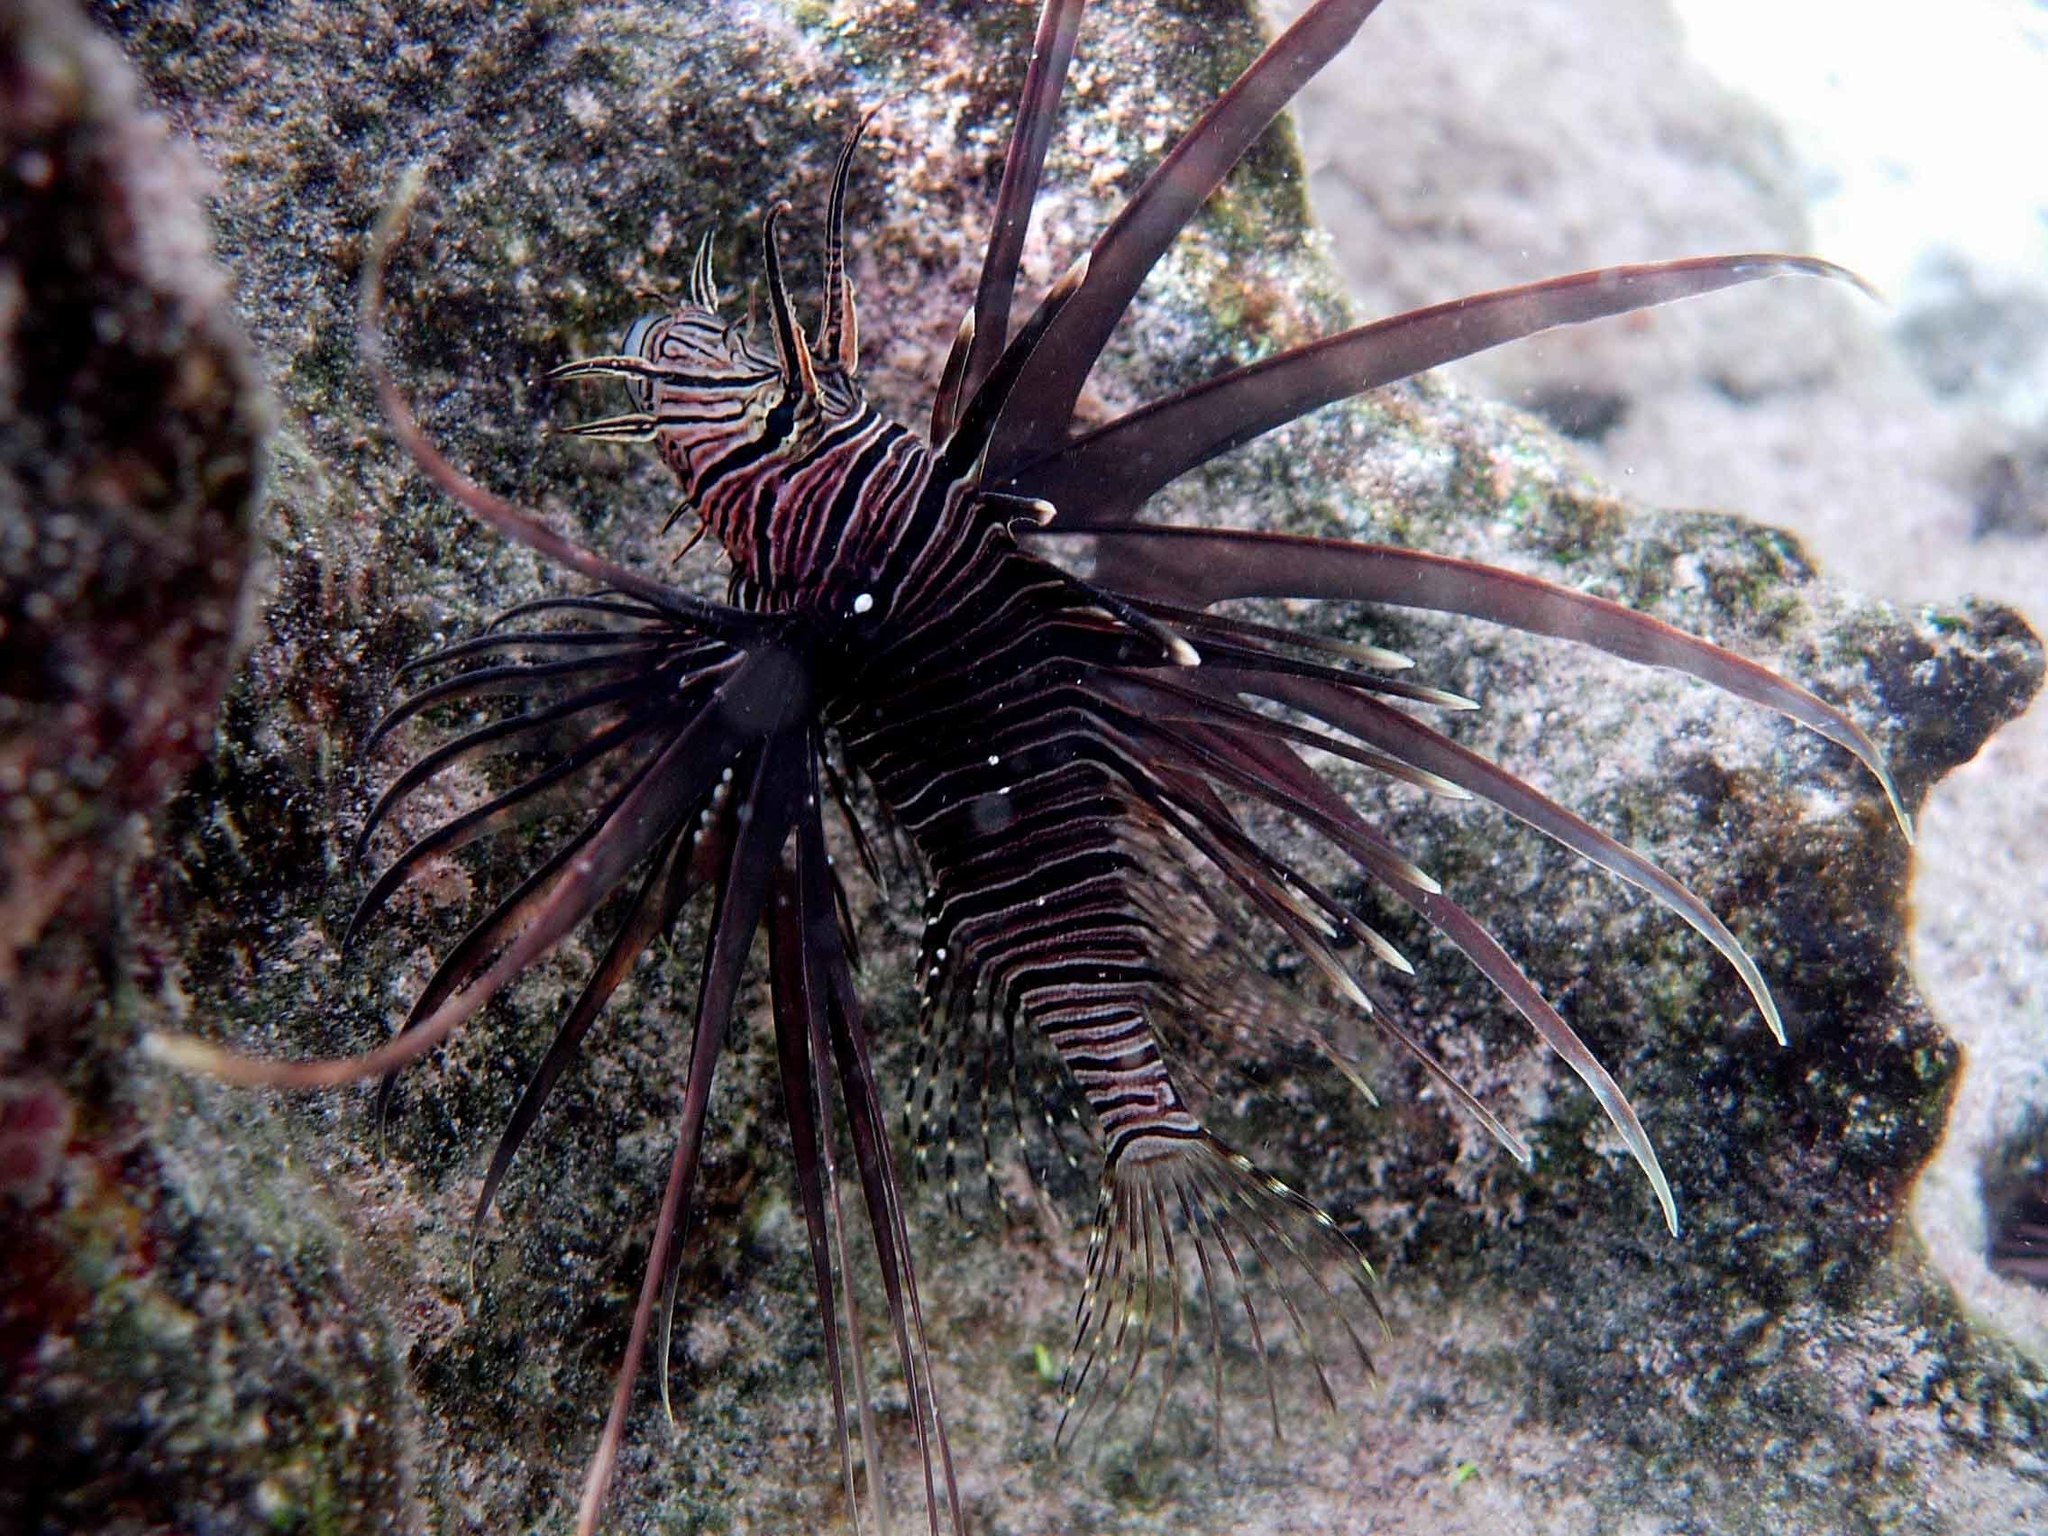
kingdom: Animalia
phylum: Chordata
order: Scorpaeniformes
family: Scorpaenidae
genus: Pterois
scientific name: Pterois volitans
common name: Lionfish
